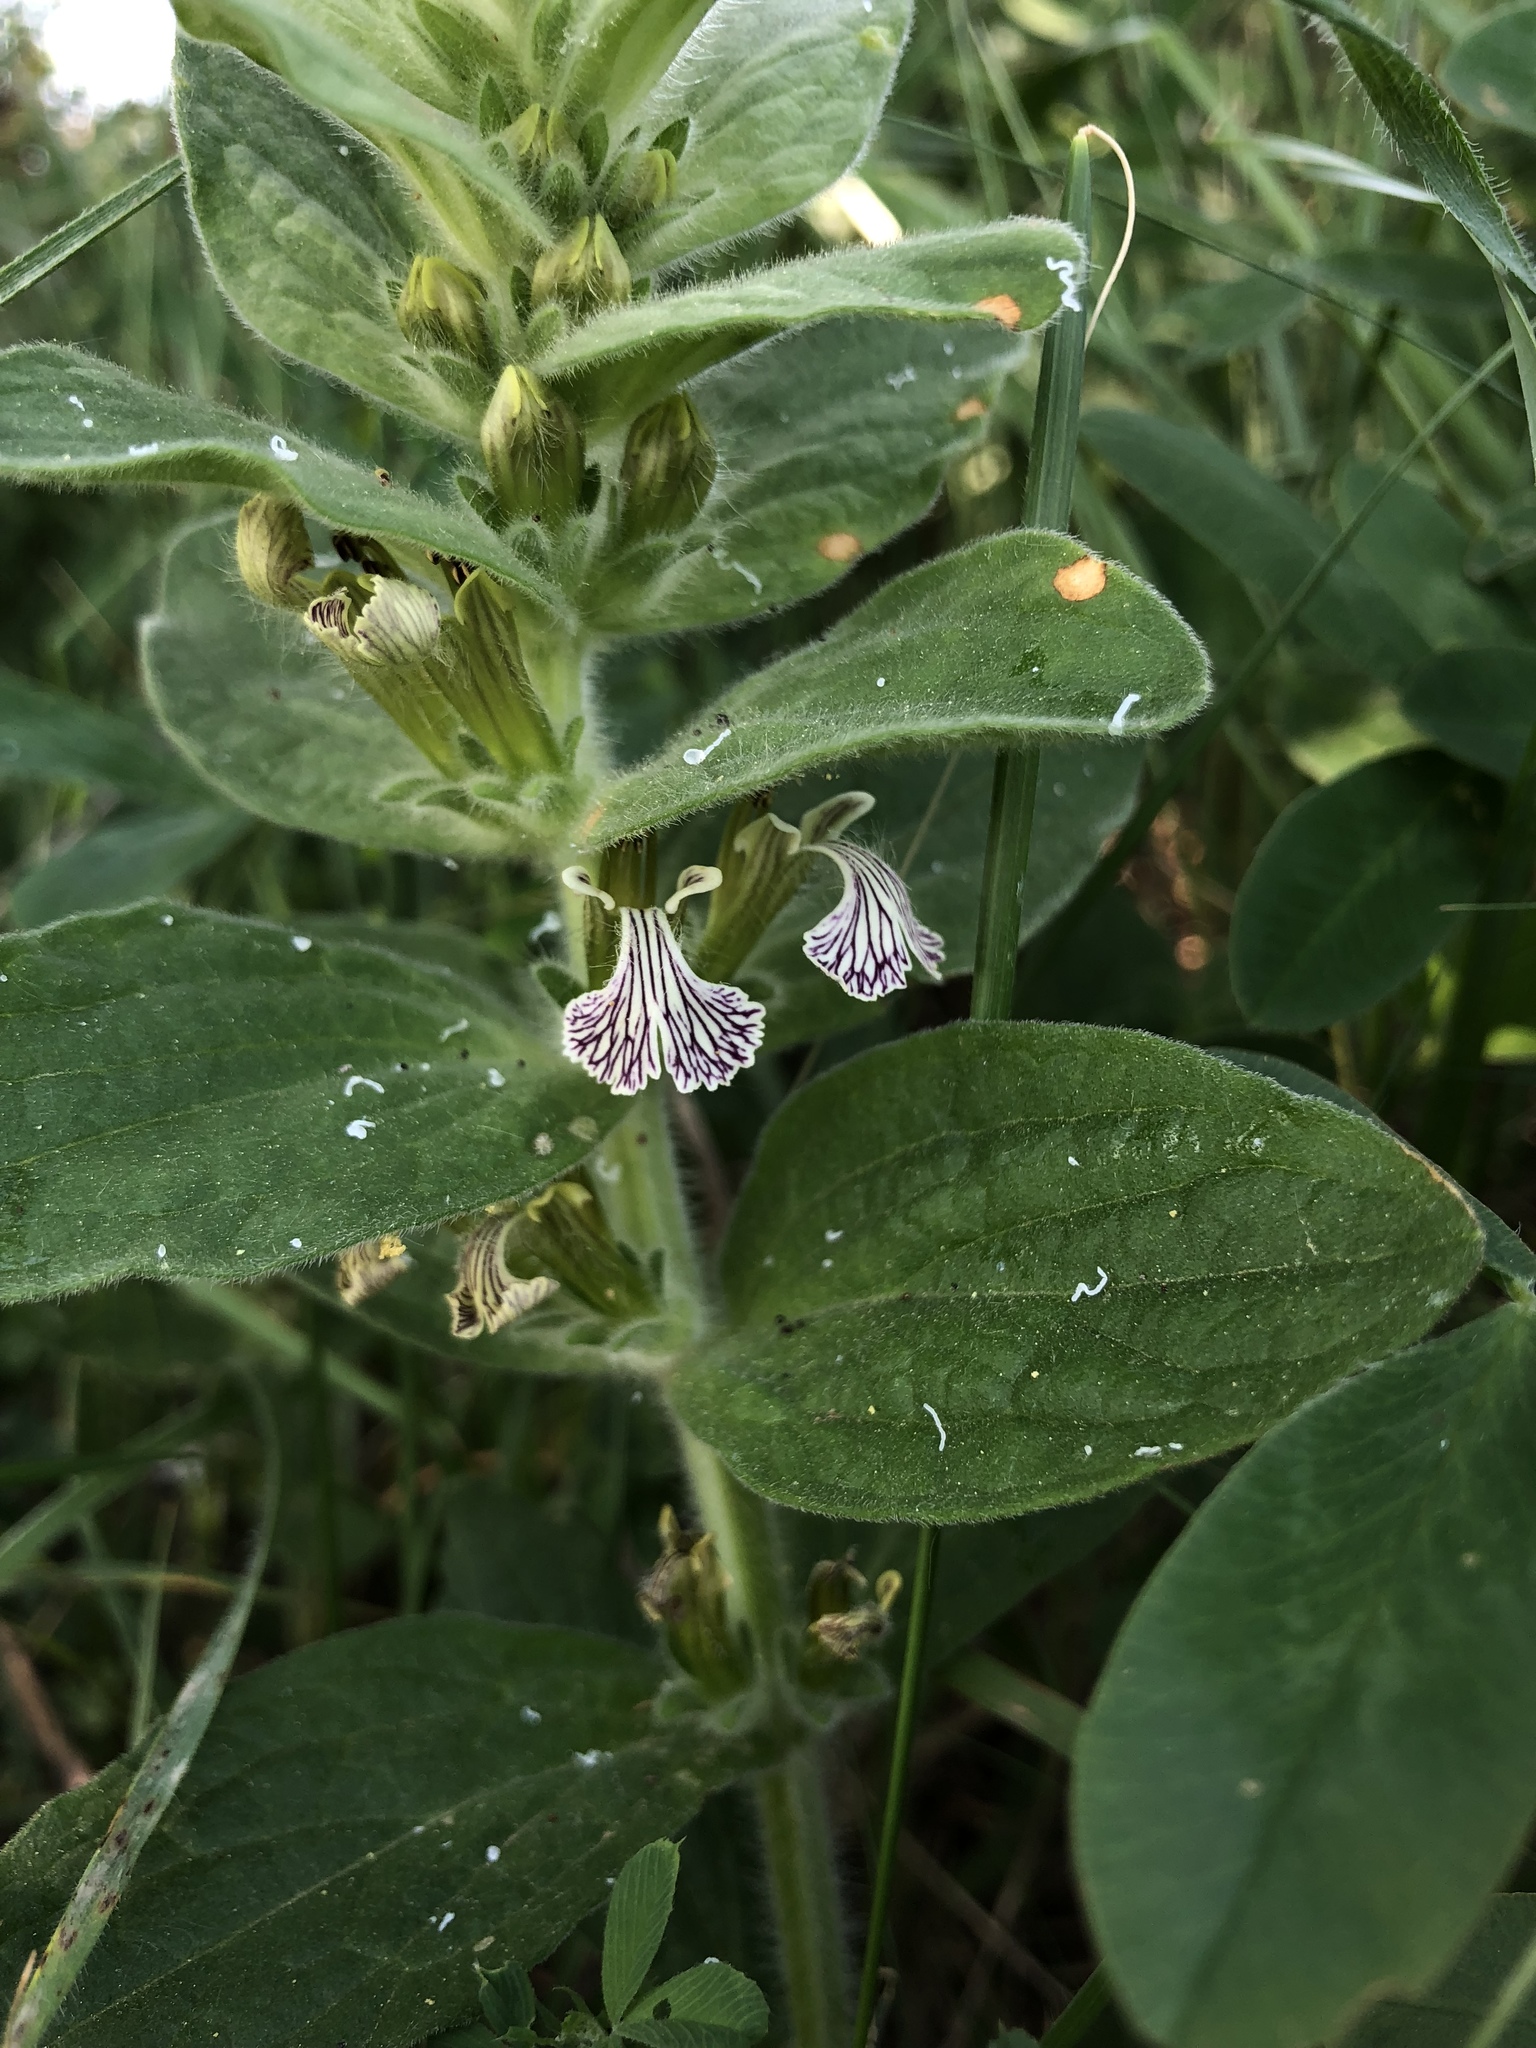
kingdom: Plantae
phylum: Tracheophyta
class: Magnoliopsida
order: Lamiales
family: Lamiaceae
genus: Ajuga
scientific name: Ajuga laxmannii
